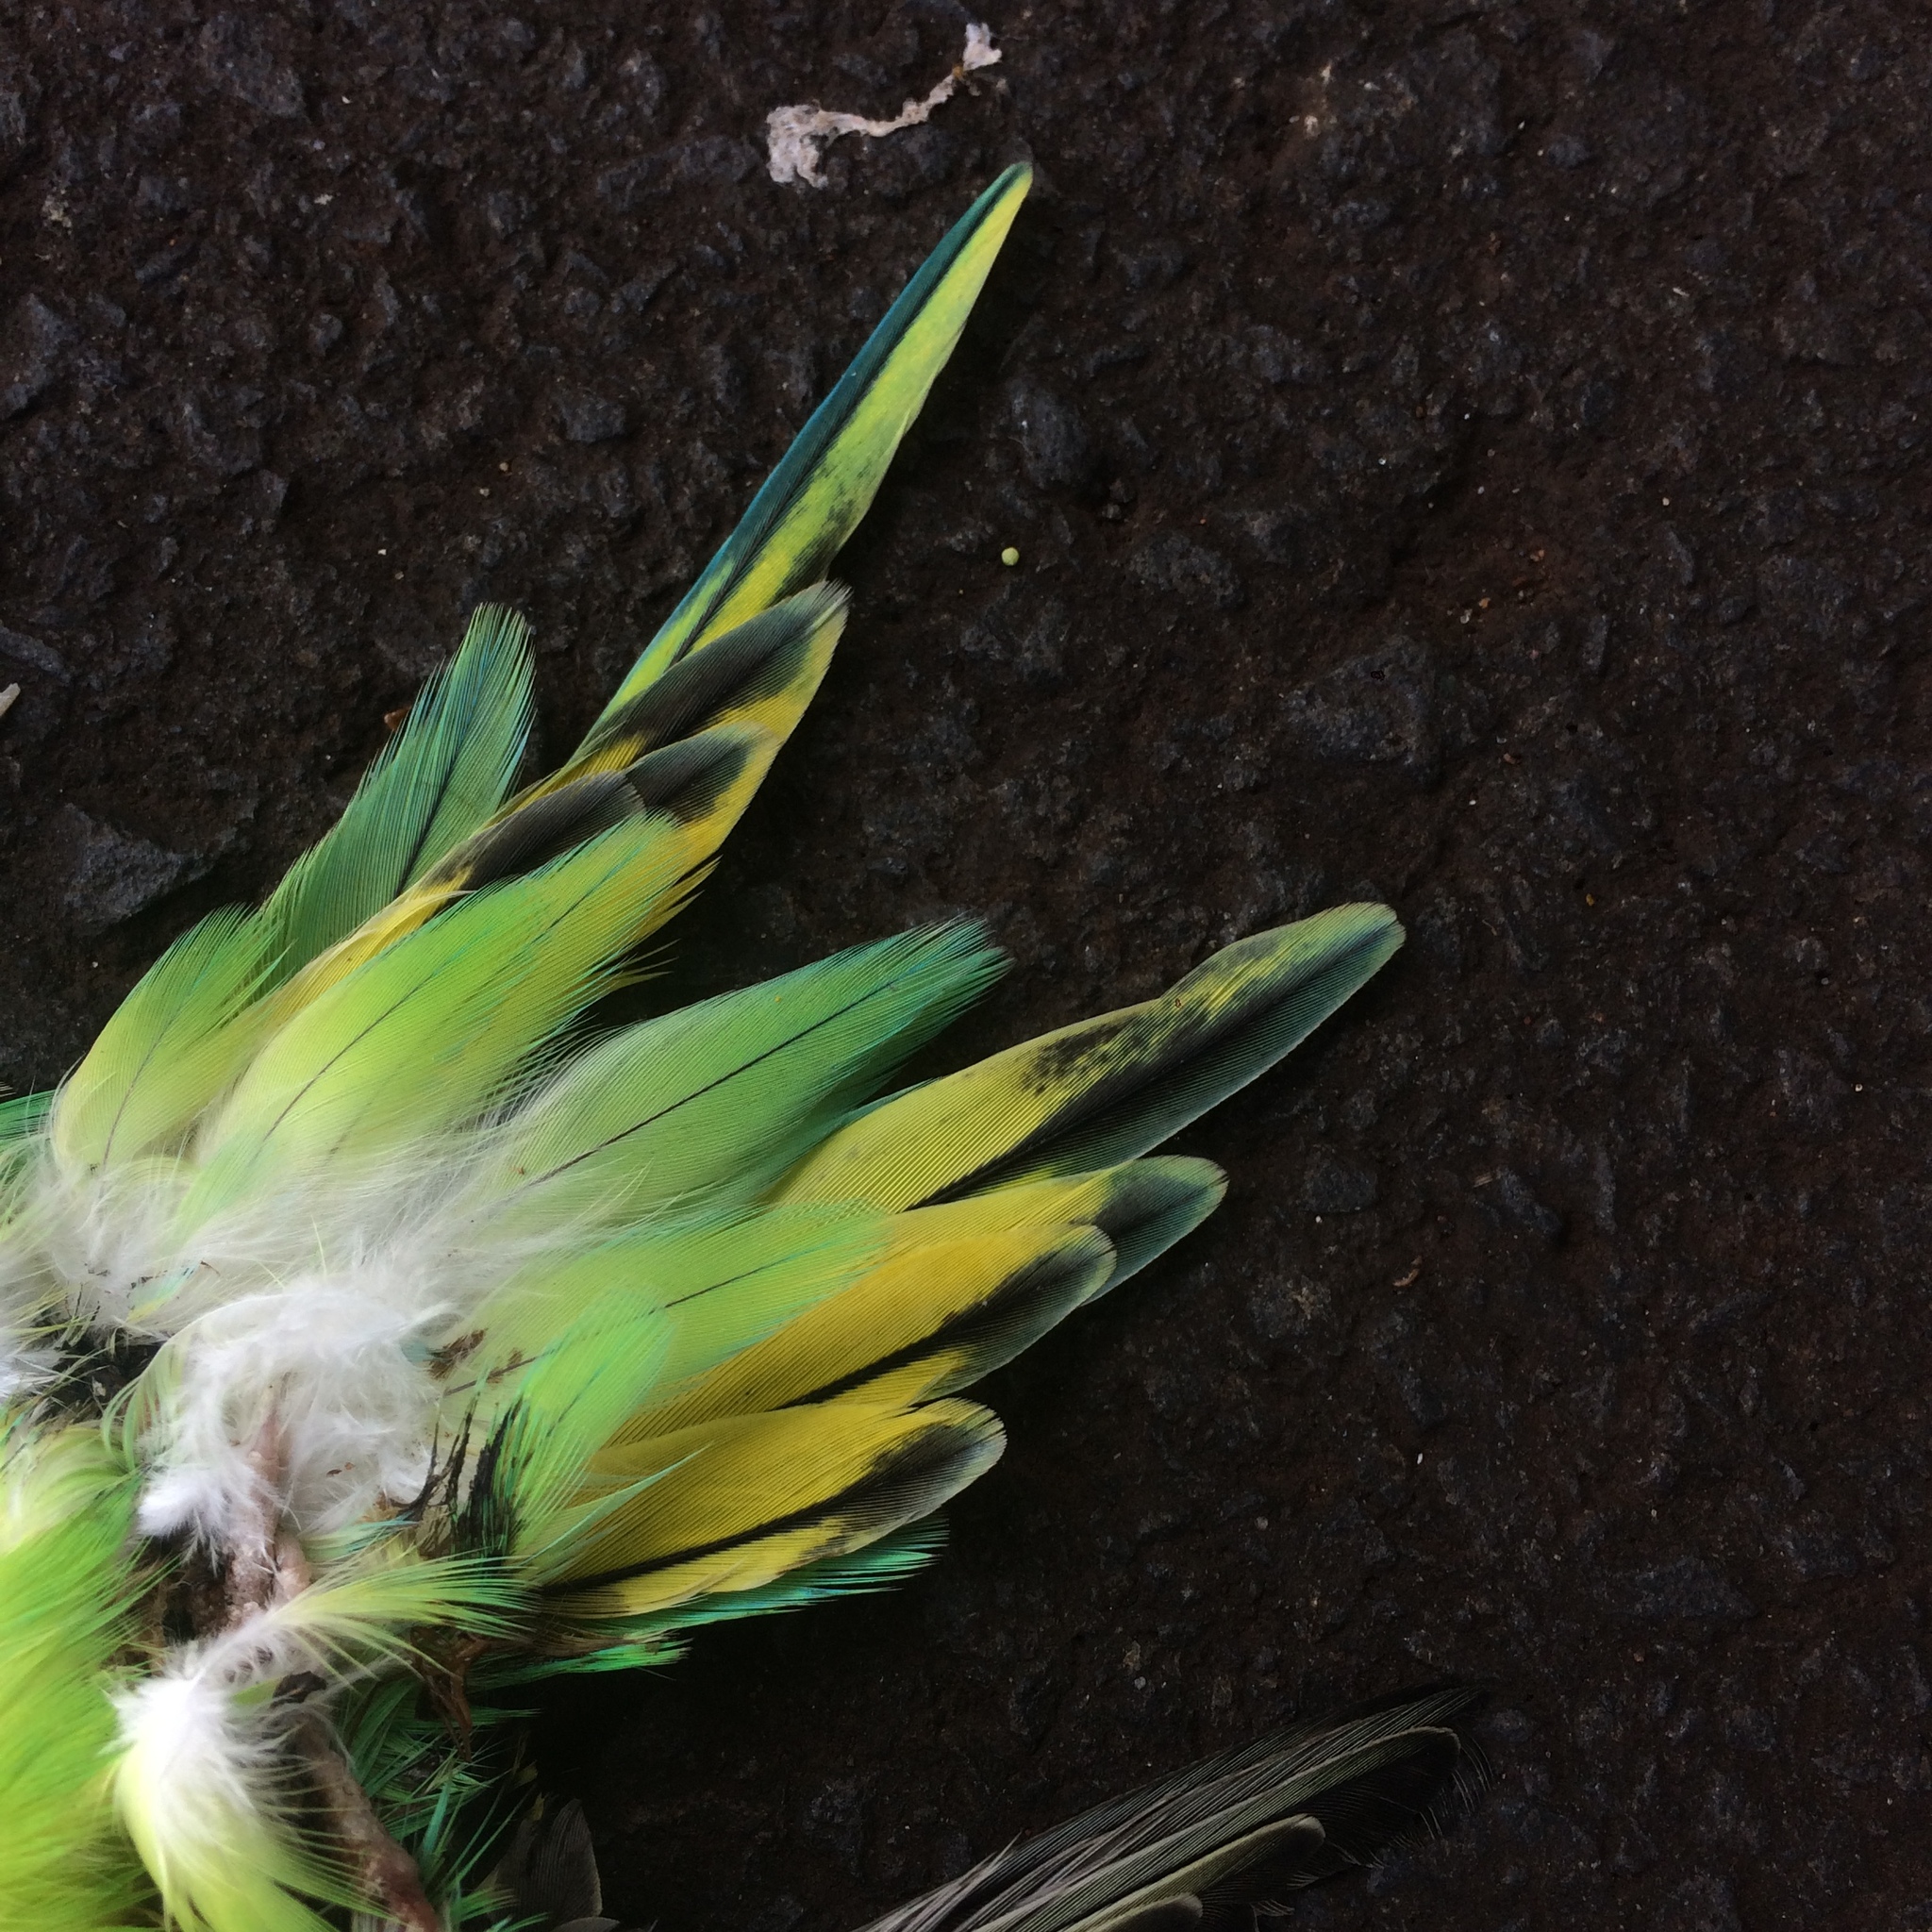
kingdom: Animalia
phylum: Chordata
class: Aves
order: Psittaciformes
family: Psittacidae
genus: Melopsittacus
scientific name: Melopsittacus undulatus
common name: Budgerigar
